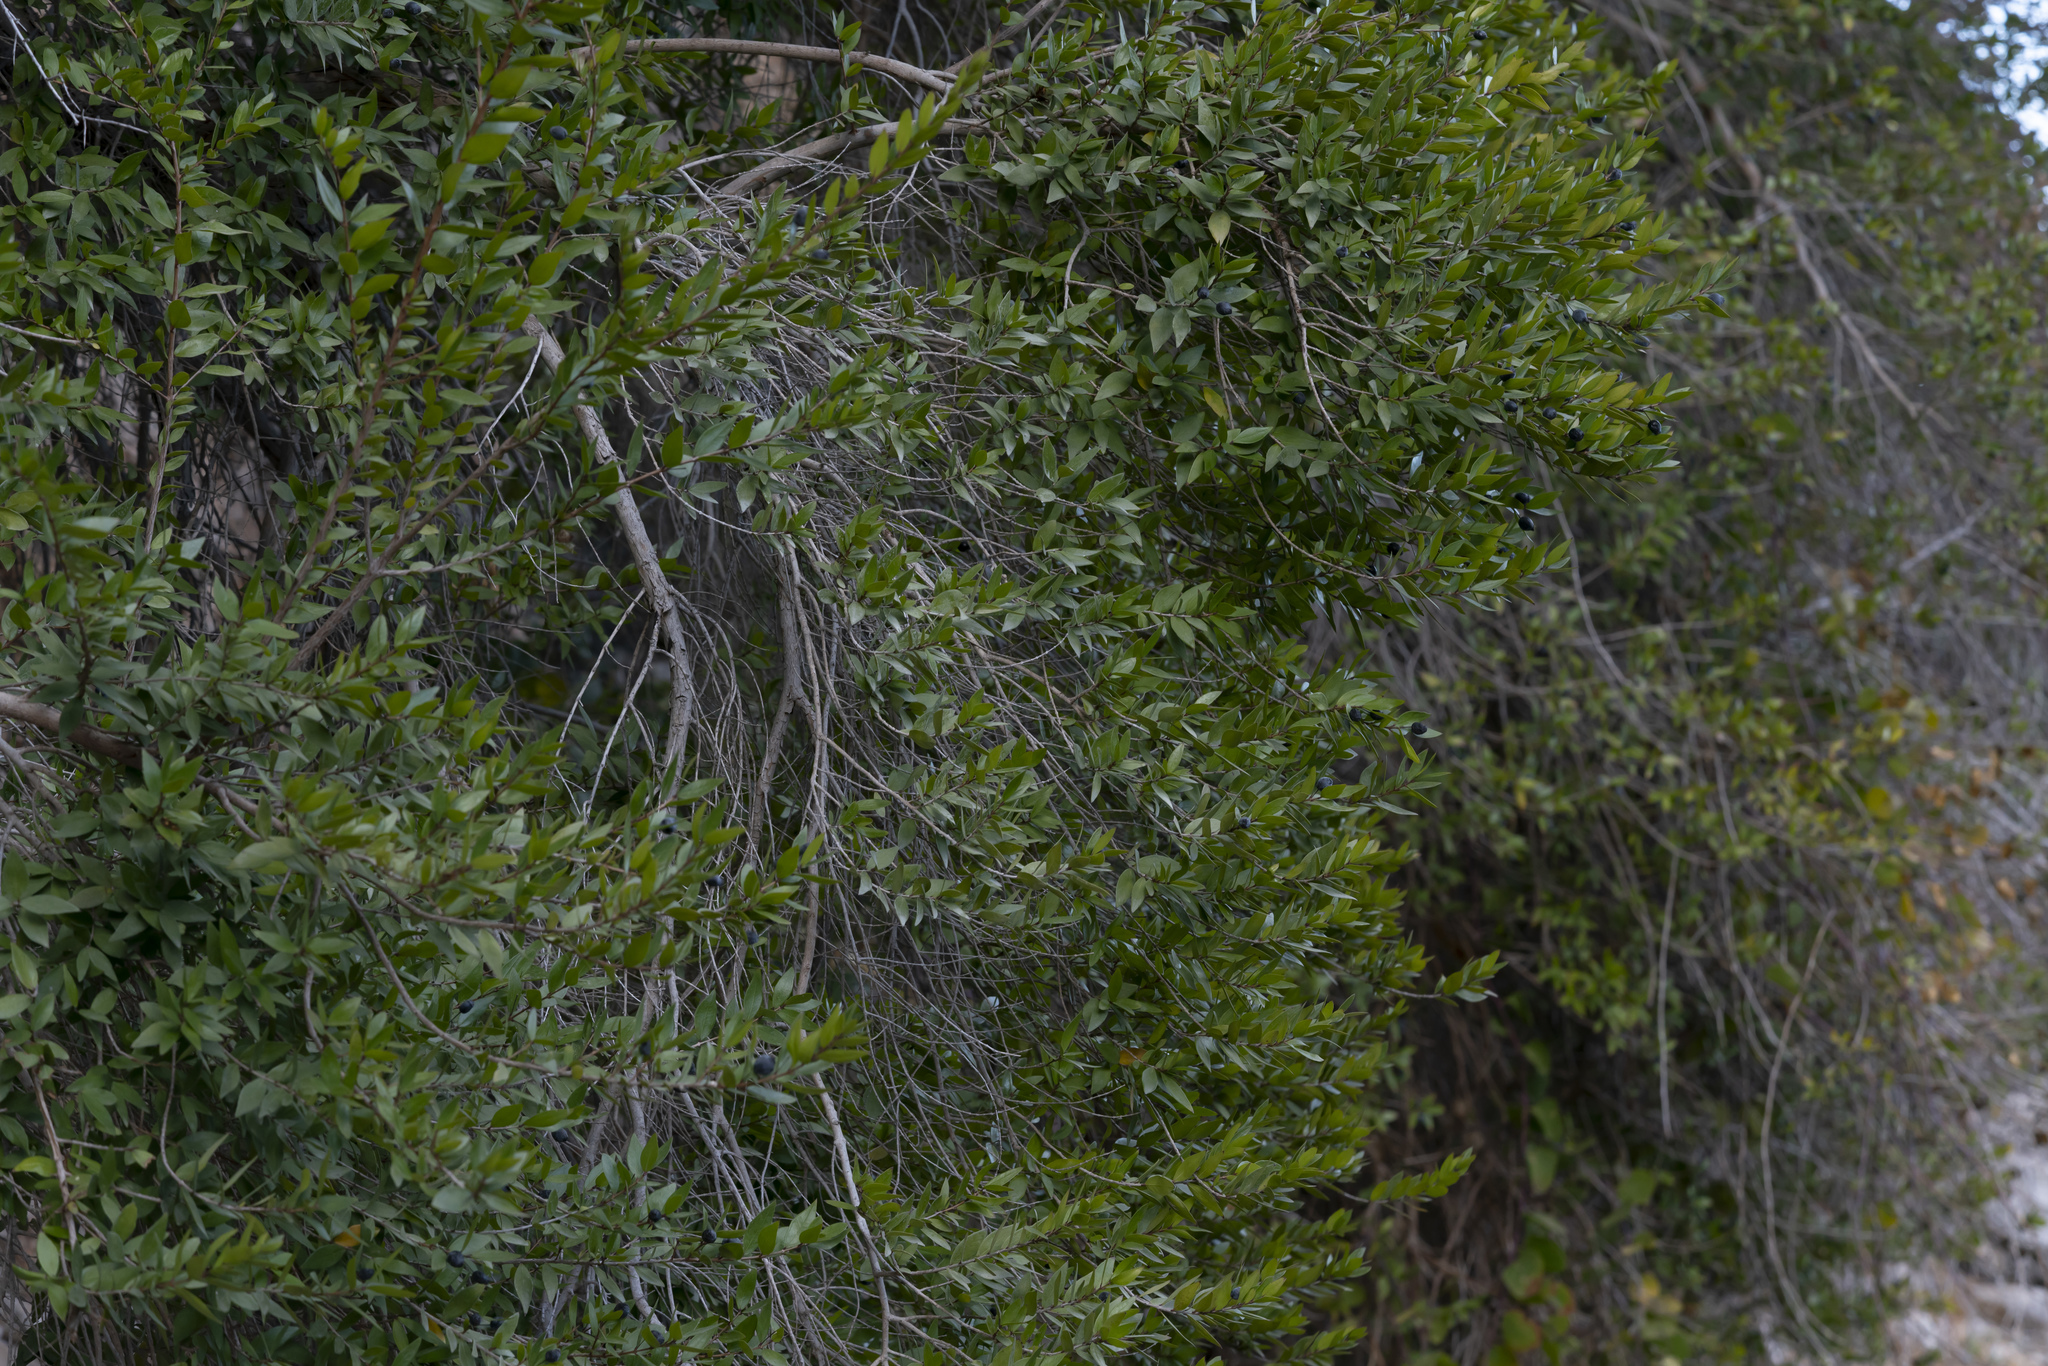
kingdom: Plantae
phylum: Tracheophyta
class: Magnoliopsida
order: Myrtales
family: Myrtaceae
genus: Myrtus
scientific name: Myrtus communis
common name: Myrtle
